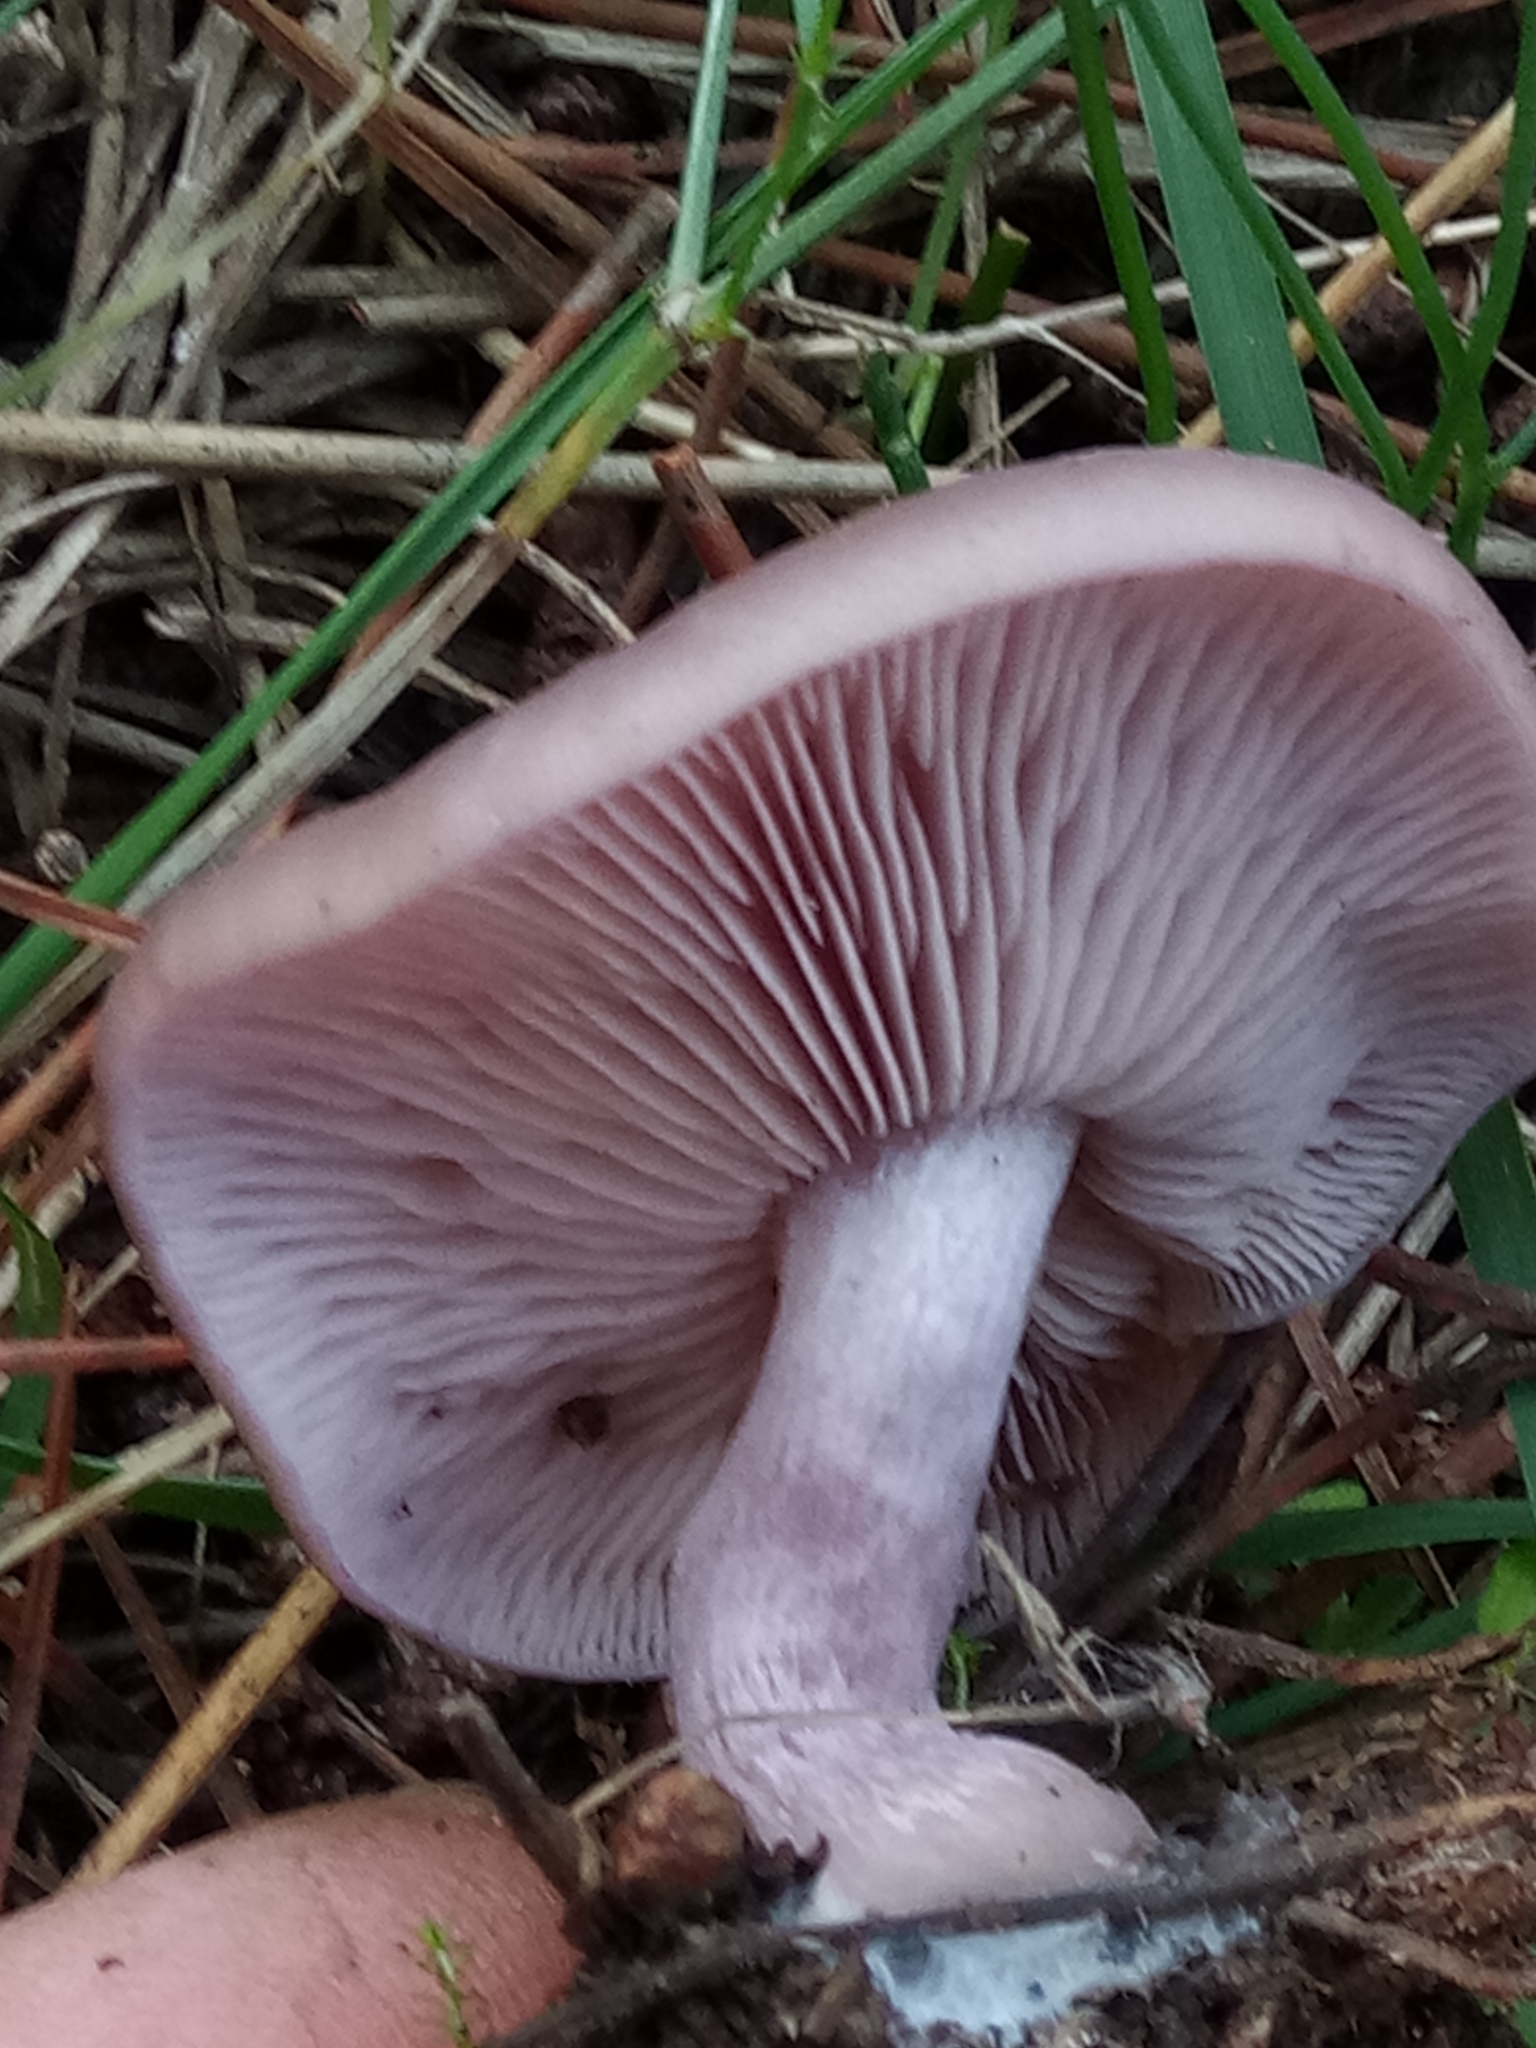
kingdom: Fungi
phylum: Basidiomycota
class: Agaricomycetes
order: Agaricales
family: Tricholomataceae
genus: Collybia
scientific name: Collybia
